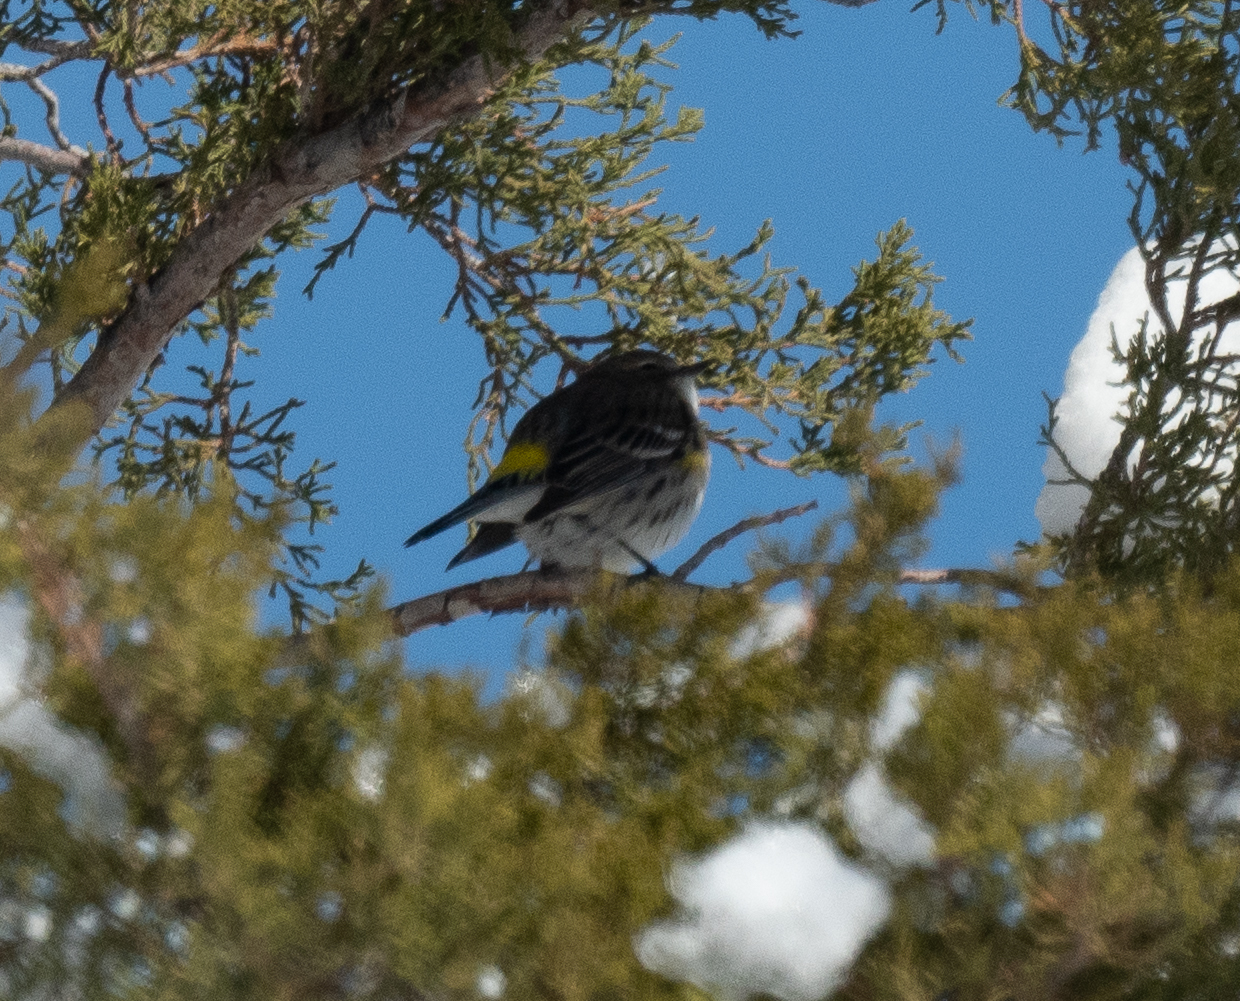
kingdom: Animalia
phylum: Chordata
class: Aves
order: Passeriformes
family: Parulidae
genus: Setophaga
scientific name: Setophaga coronata
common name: Myrtle warbler
